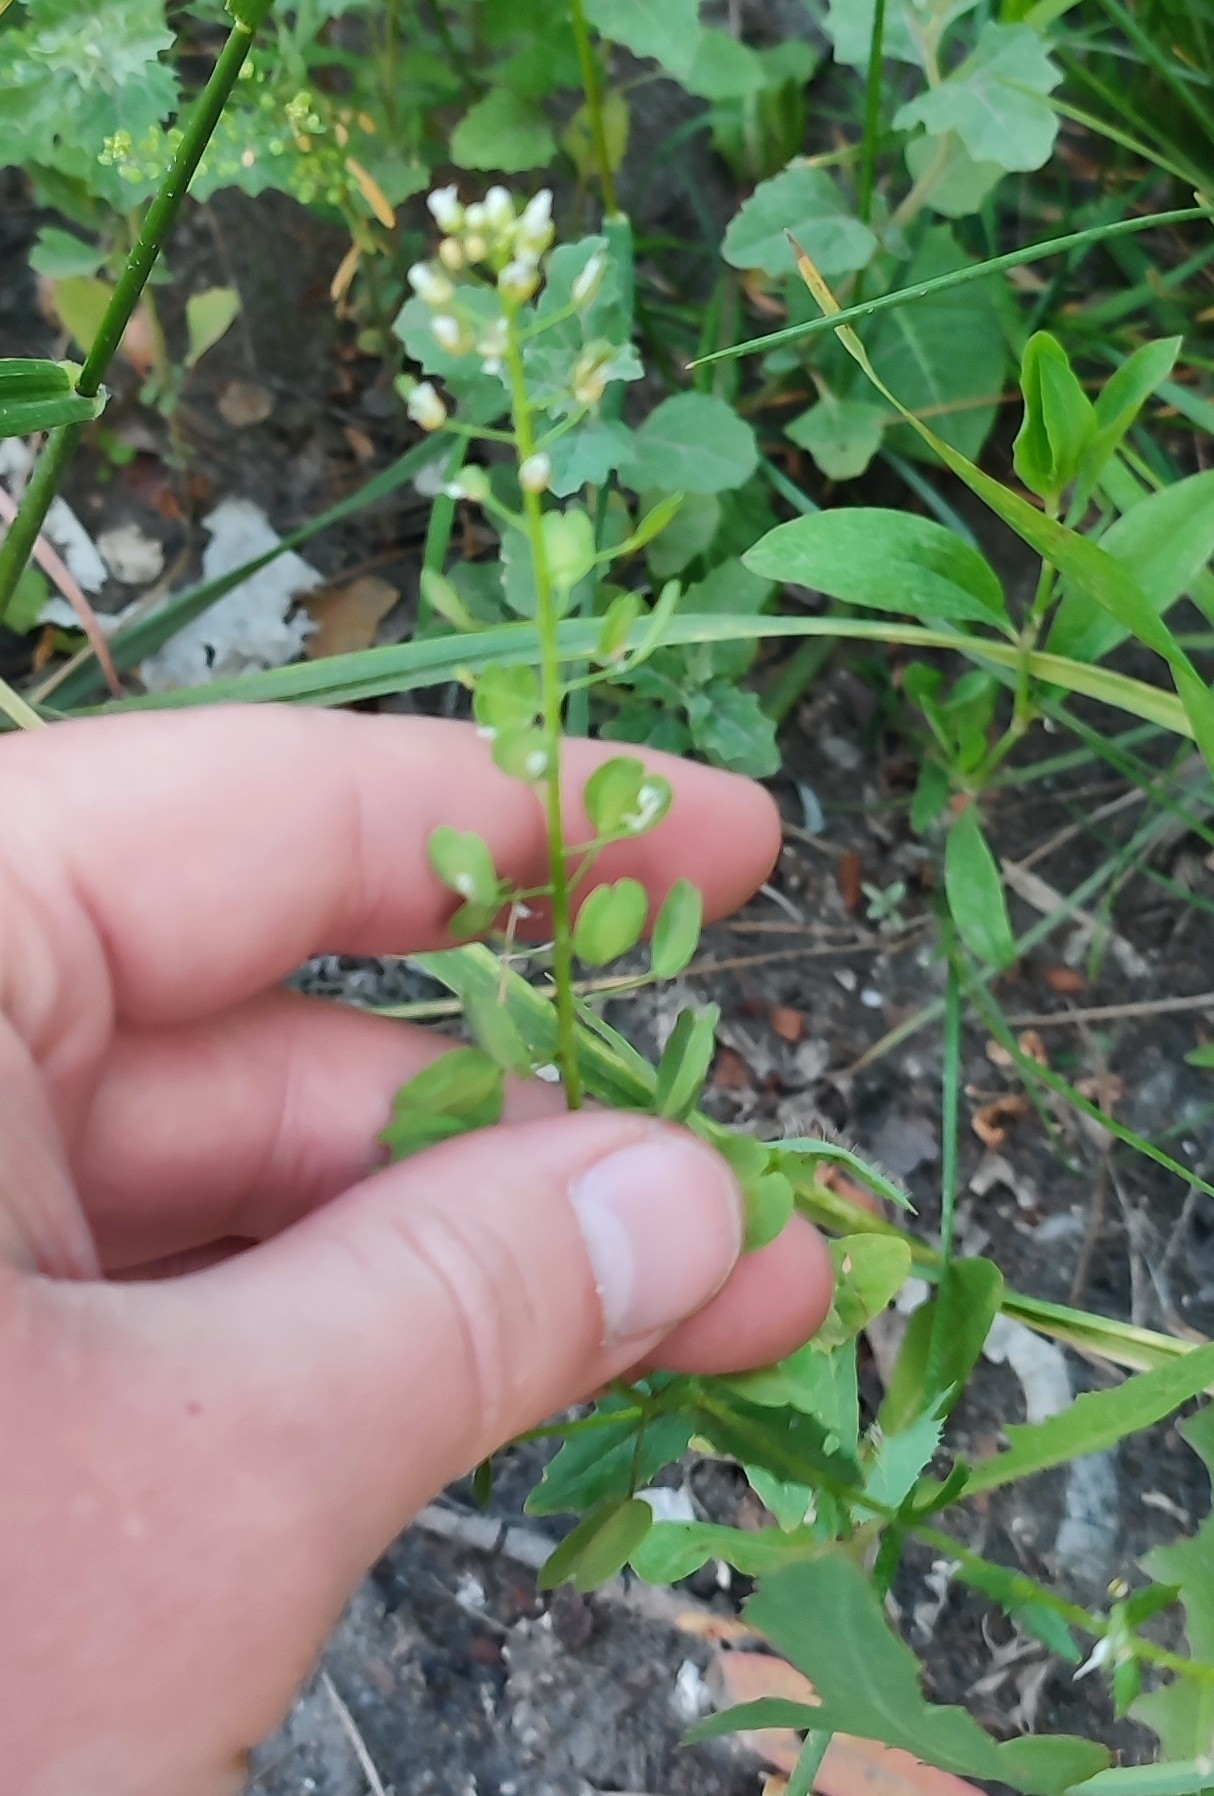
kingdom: Plantae
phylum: Tracheophyta
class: Magnoliopsida
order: Brassicales
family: Brassicaceae
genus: Thlaspi
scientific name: Thlaspi arvense
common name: Field pennycress
